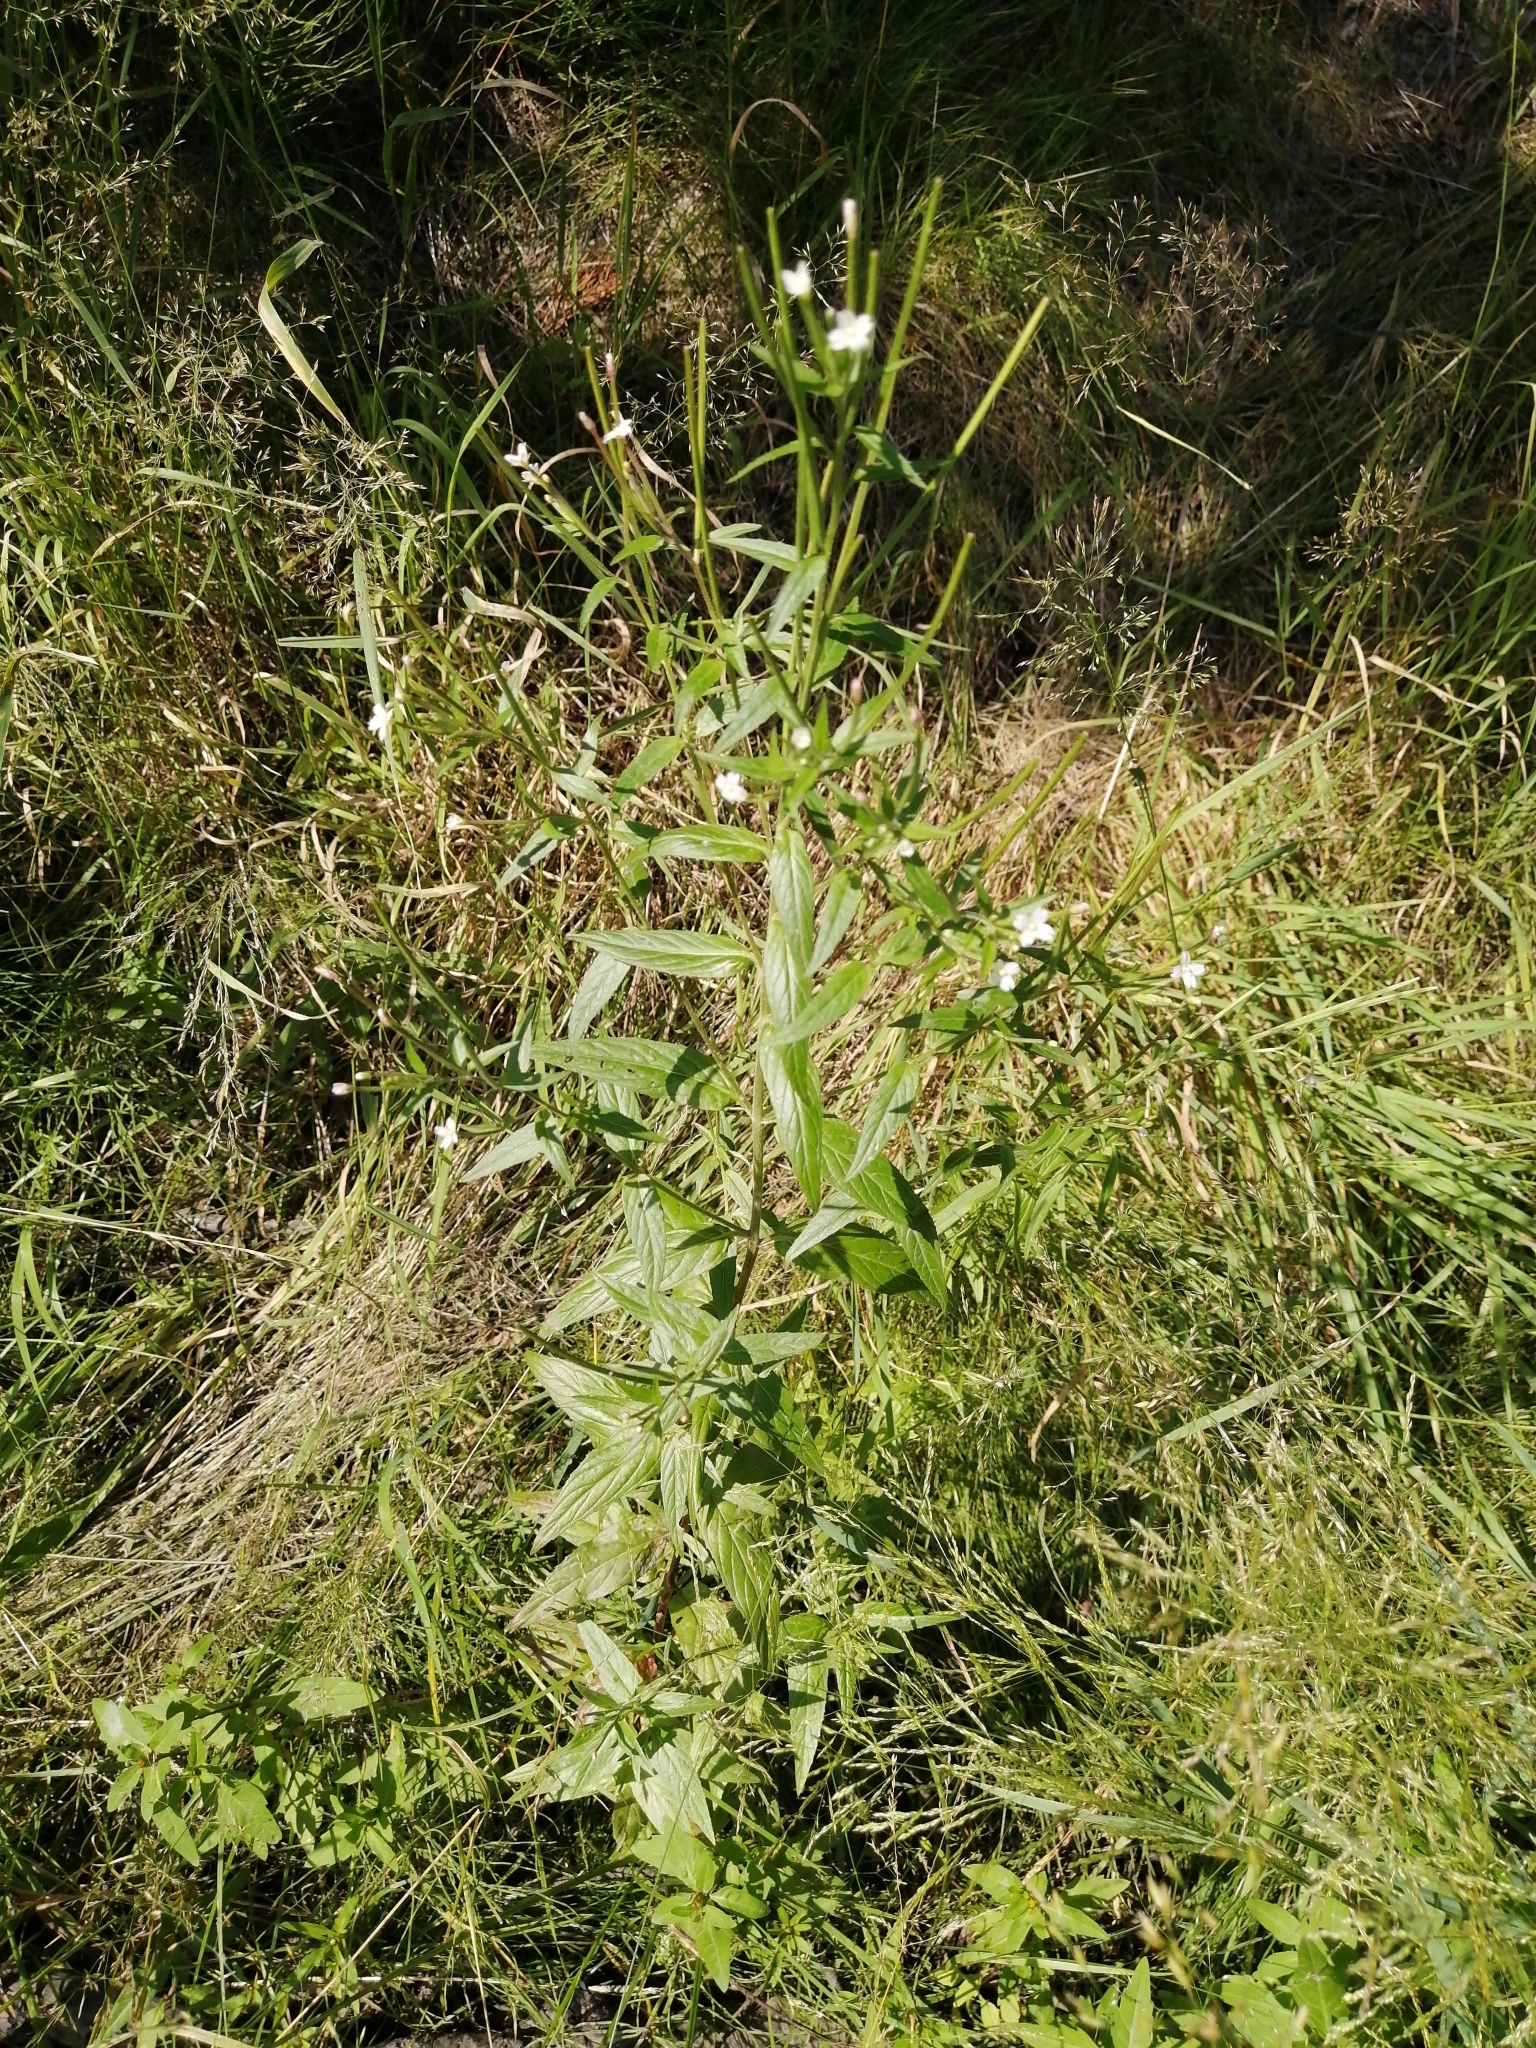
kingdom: Plantae
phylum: Tracheophyta
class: Magnoliopsida
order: Myrtales
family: Onagraceae
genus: Epilobium
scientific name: Epilobium pseudorubescens
